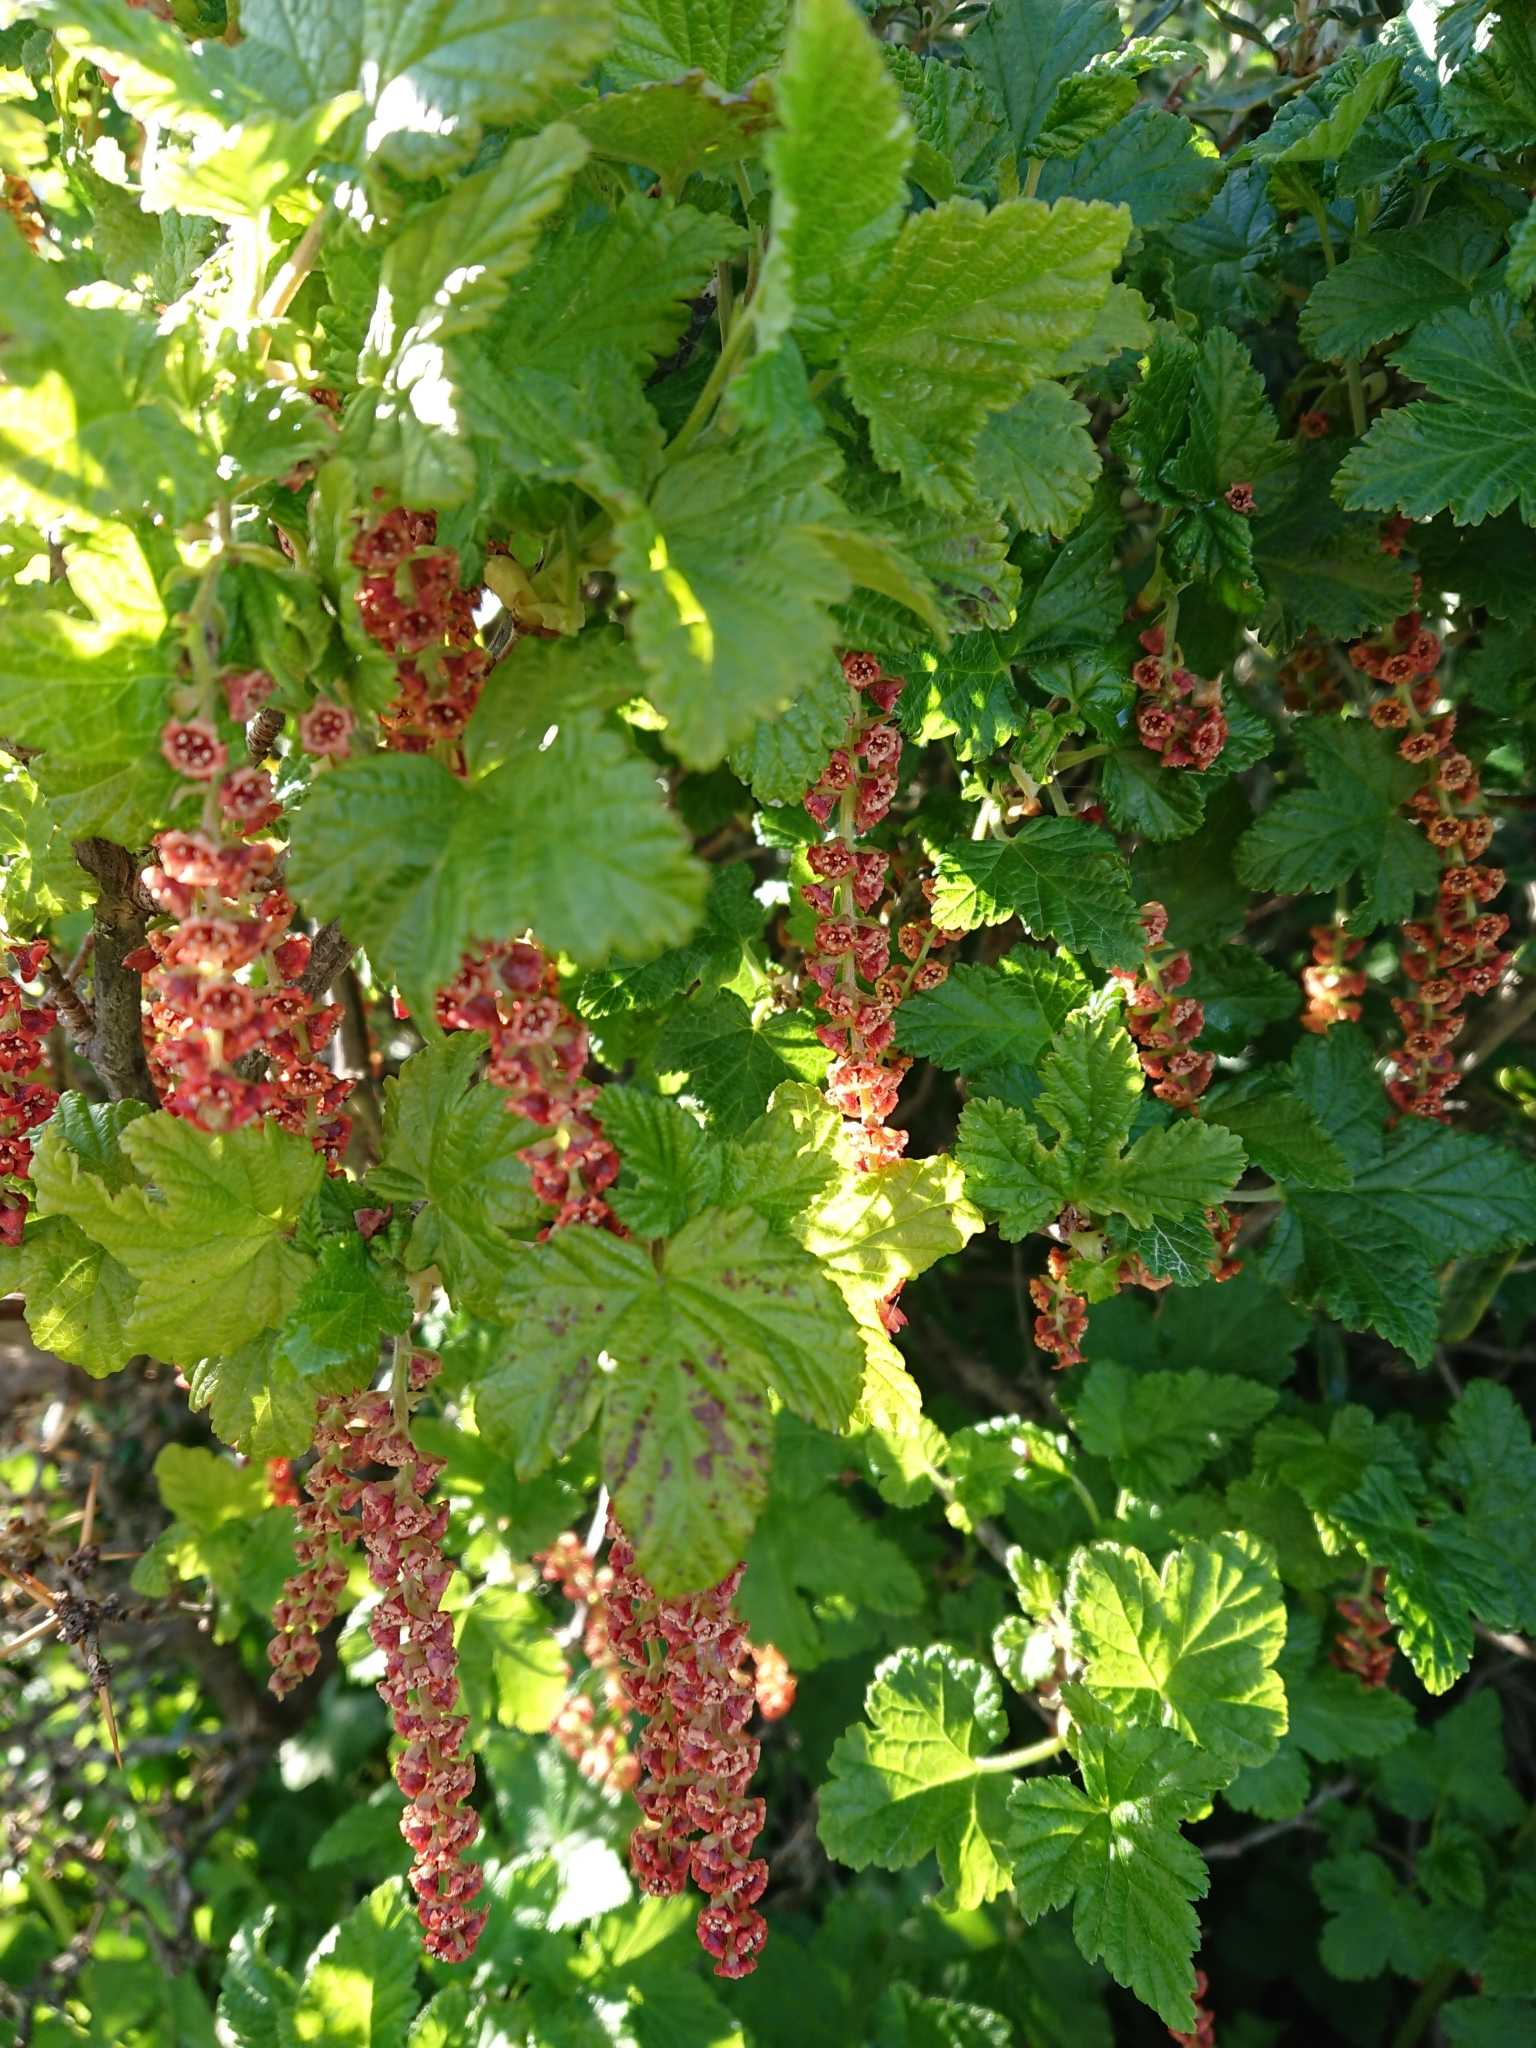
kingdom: Plantae
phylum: Tracheophyta
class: Magnoliopsida
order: Saxifragales
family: Grossulariaceae
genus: Ribes
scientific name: Ribes magellanicum
